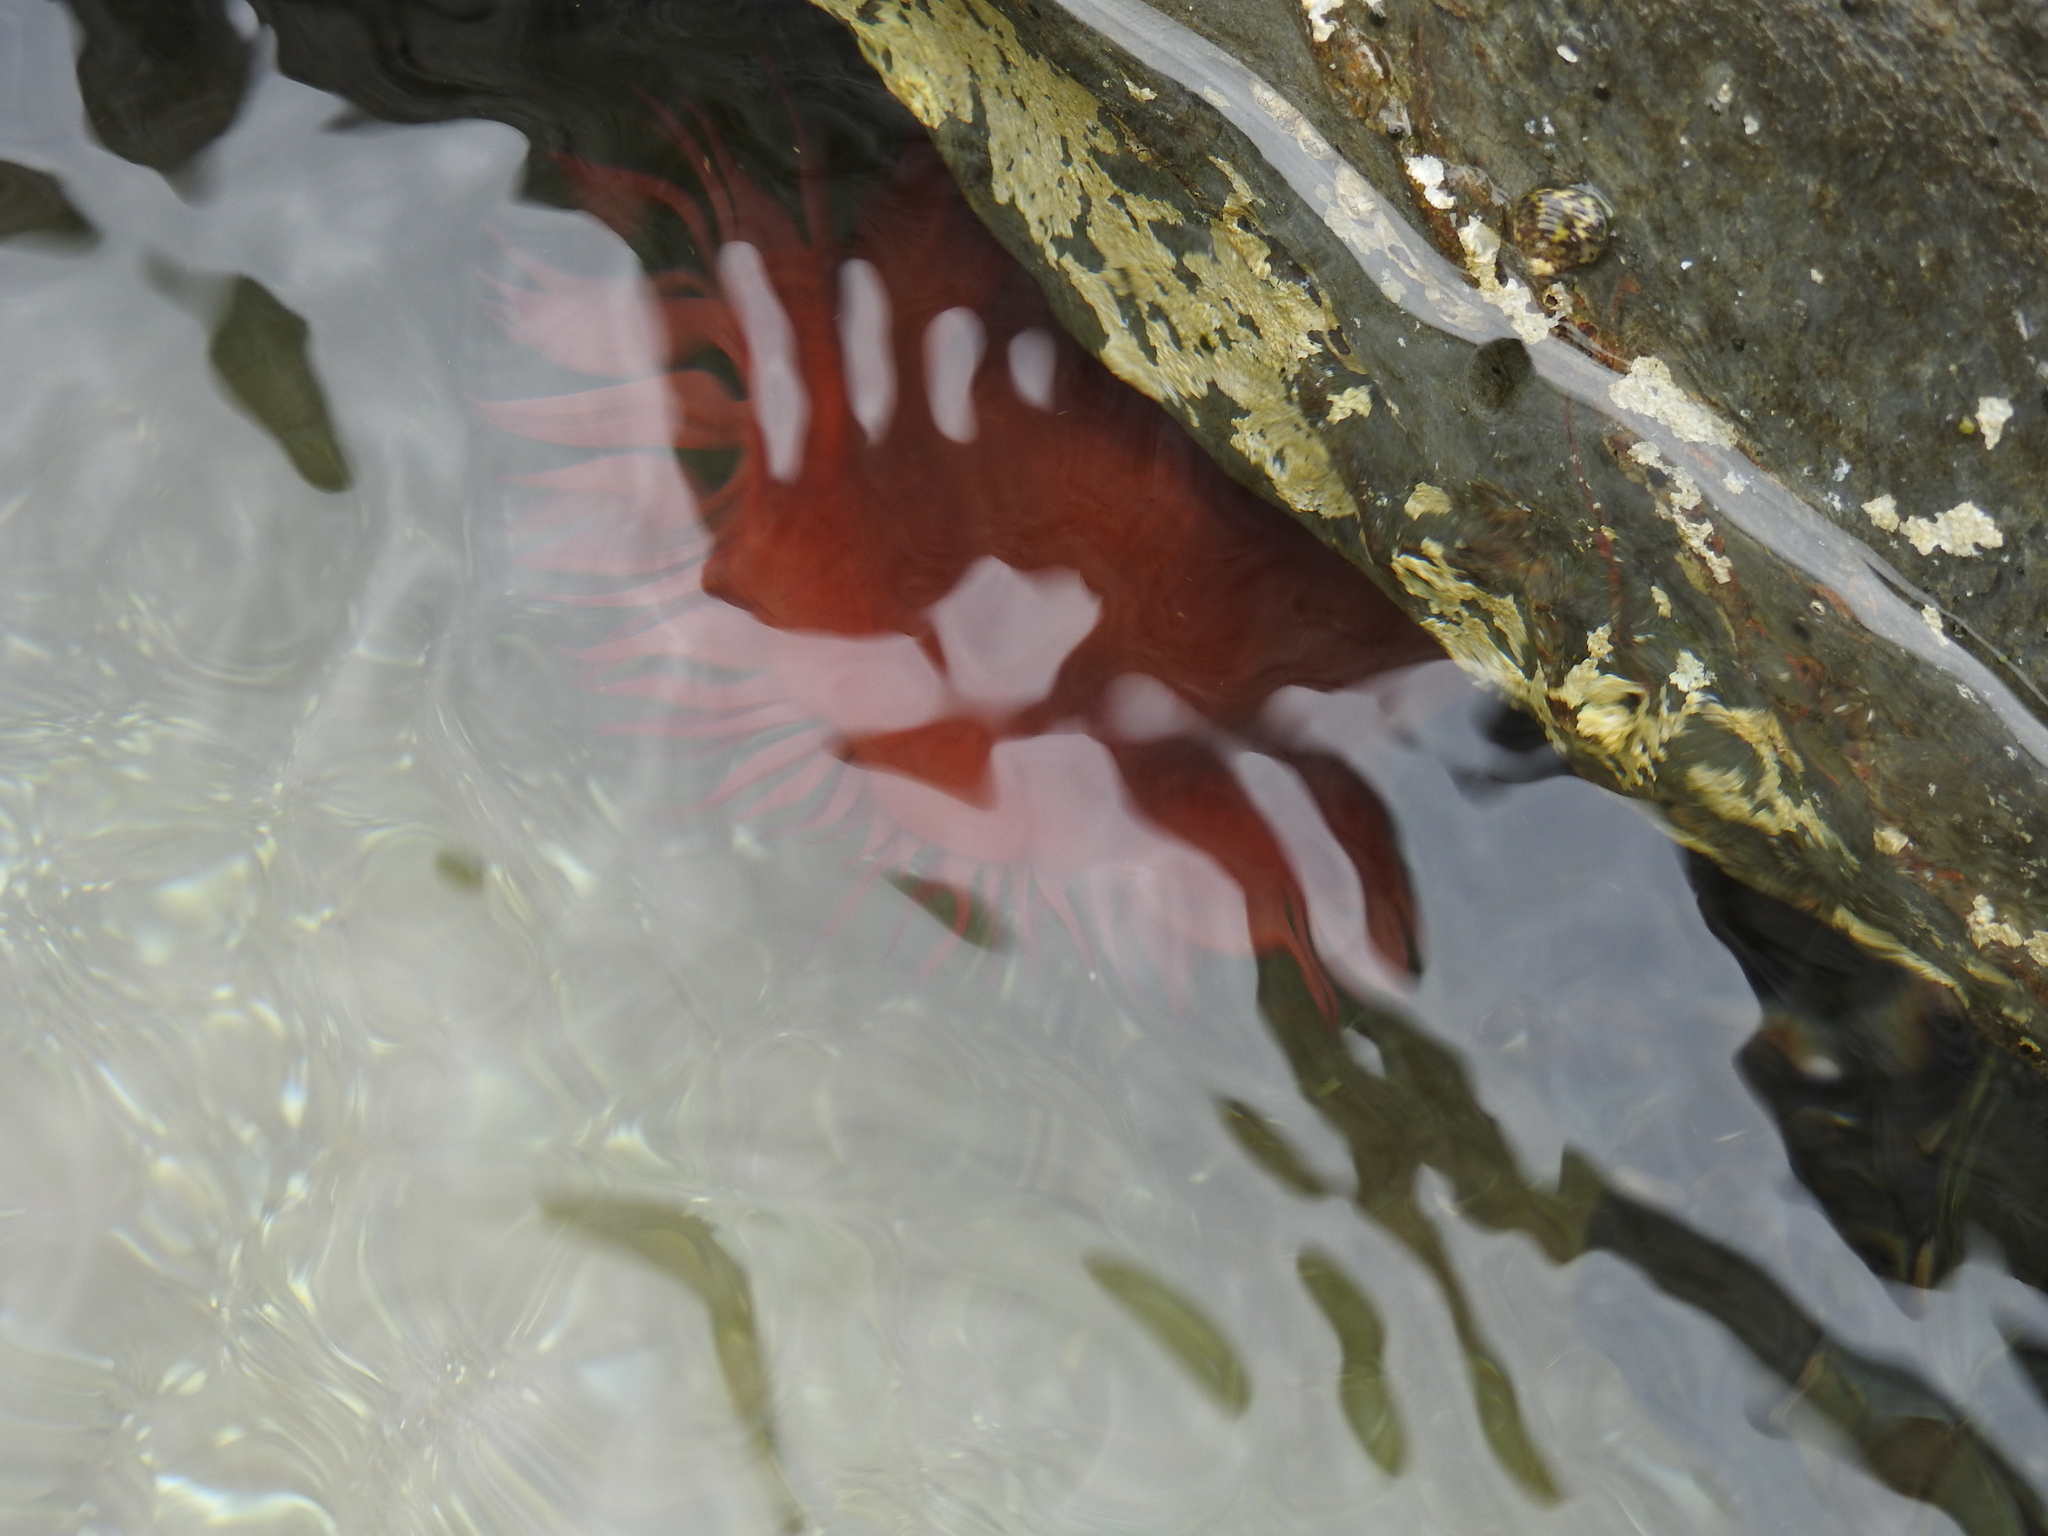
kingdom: Animalia
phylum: Cnidaria
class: Anthozoa
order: Actiniaria
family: Actiniidae
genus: Actinia
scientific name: Actinia mediterranea
